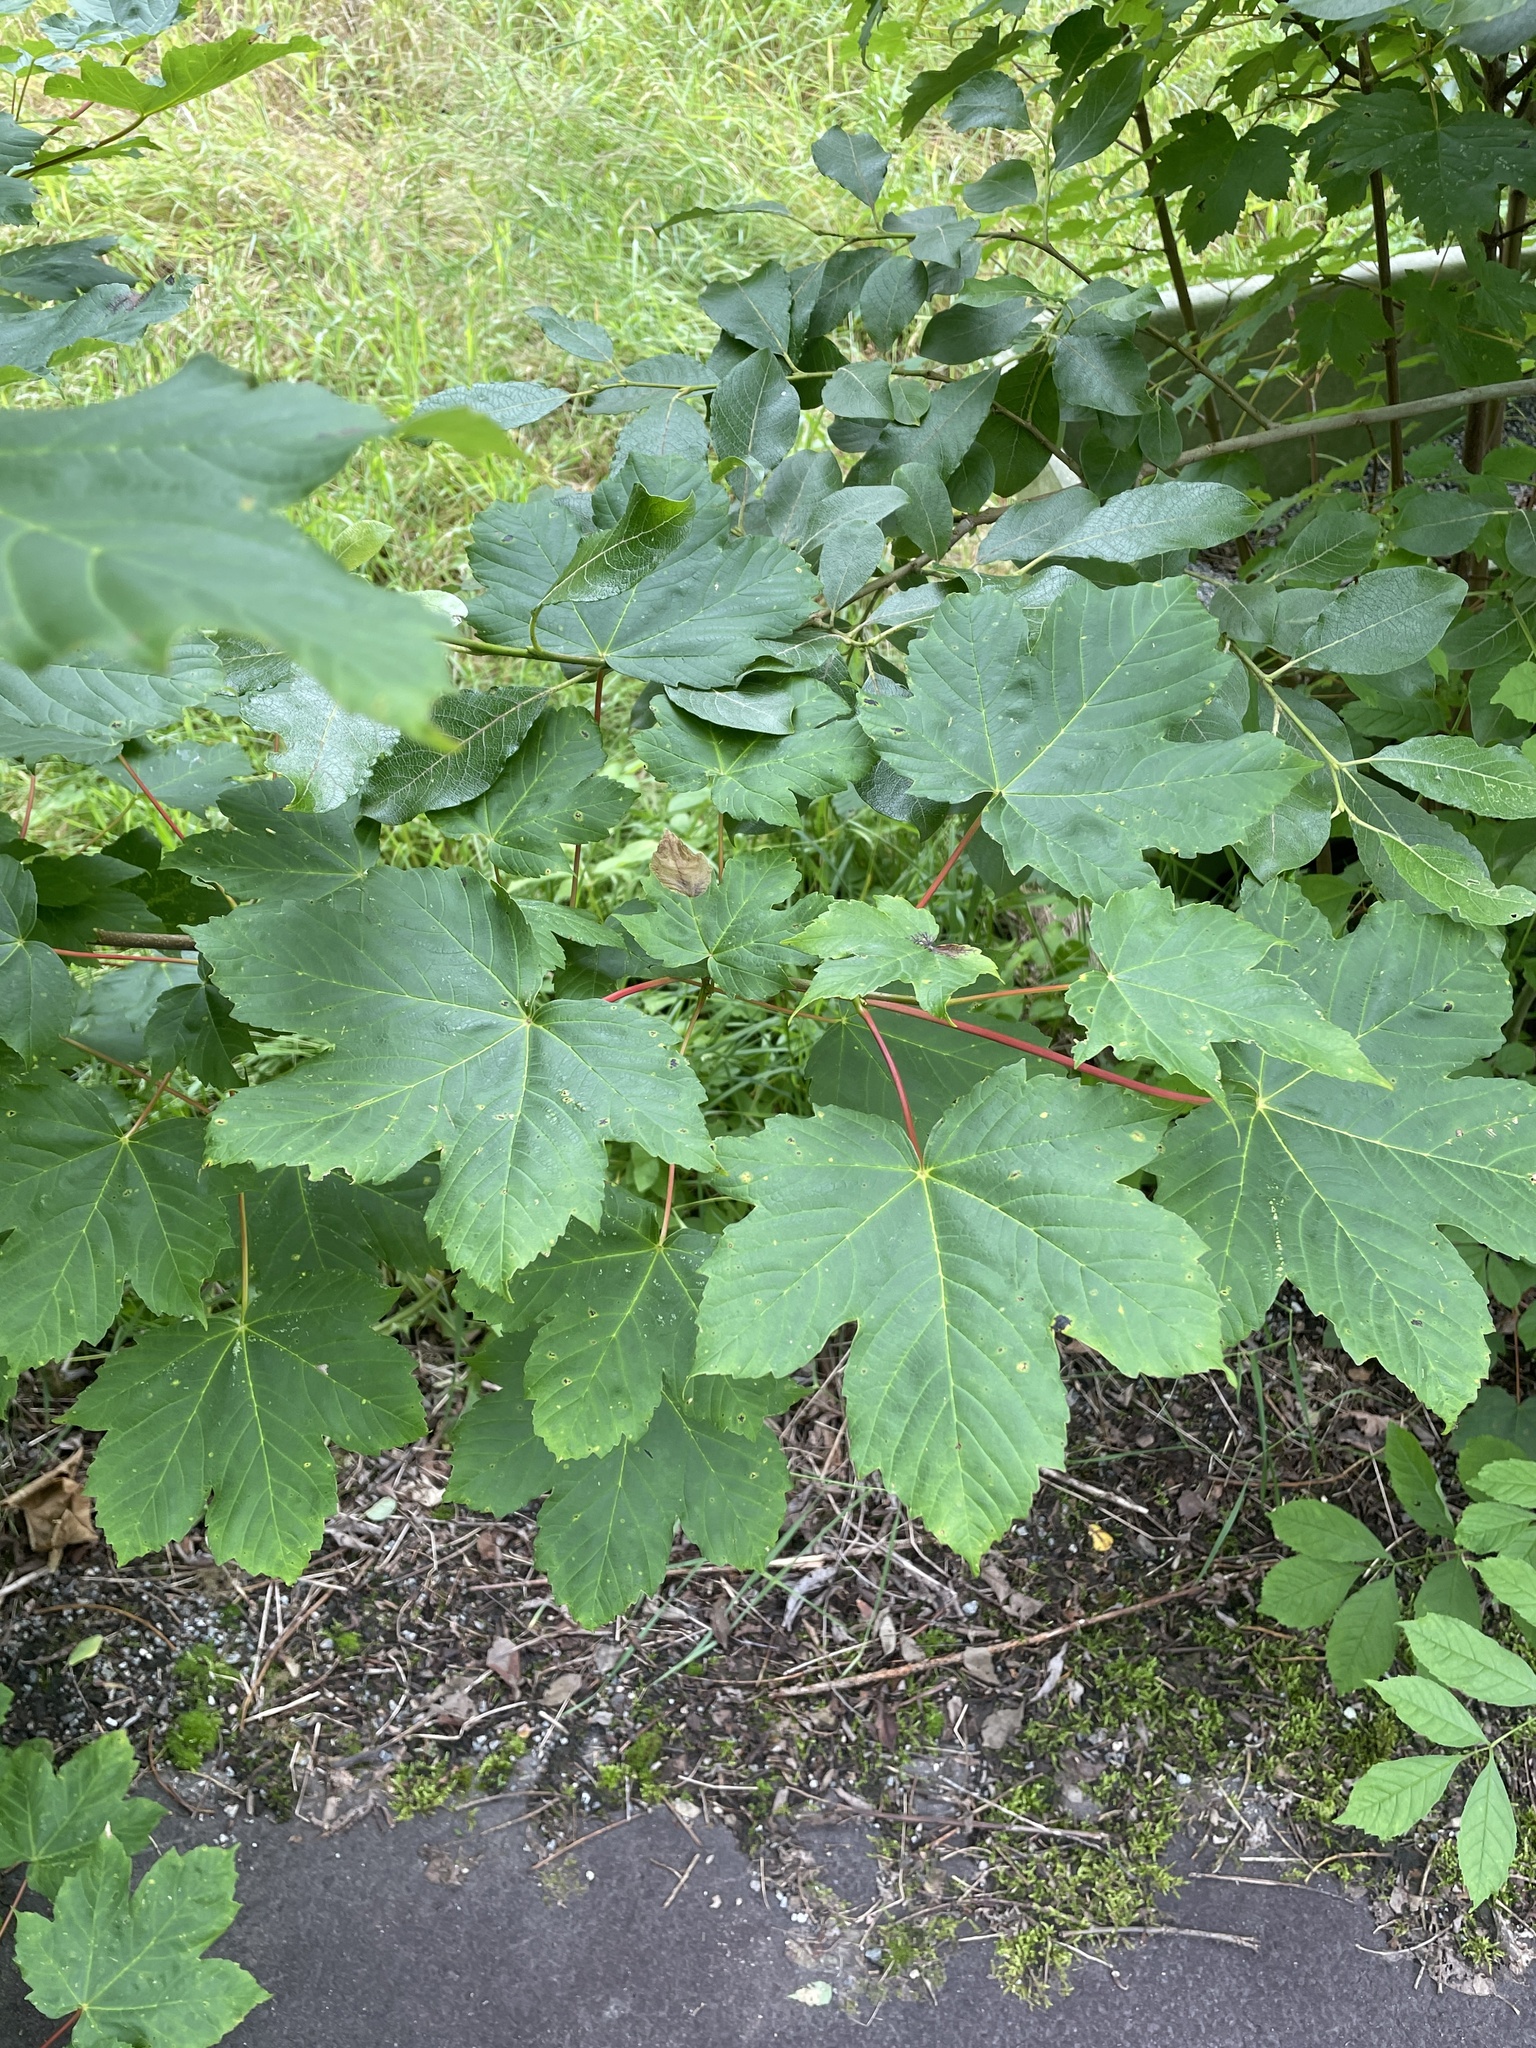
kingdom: Plantae
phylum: Tracheophyta
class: Magnoliopsida
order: Sapindales
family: Sapindaceae
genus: Acer
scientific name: Acer pseudoplatanus
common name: Sycamore
